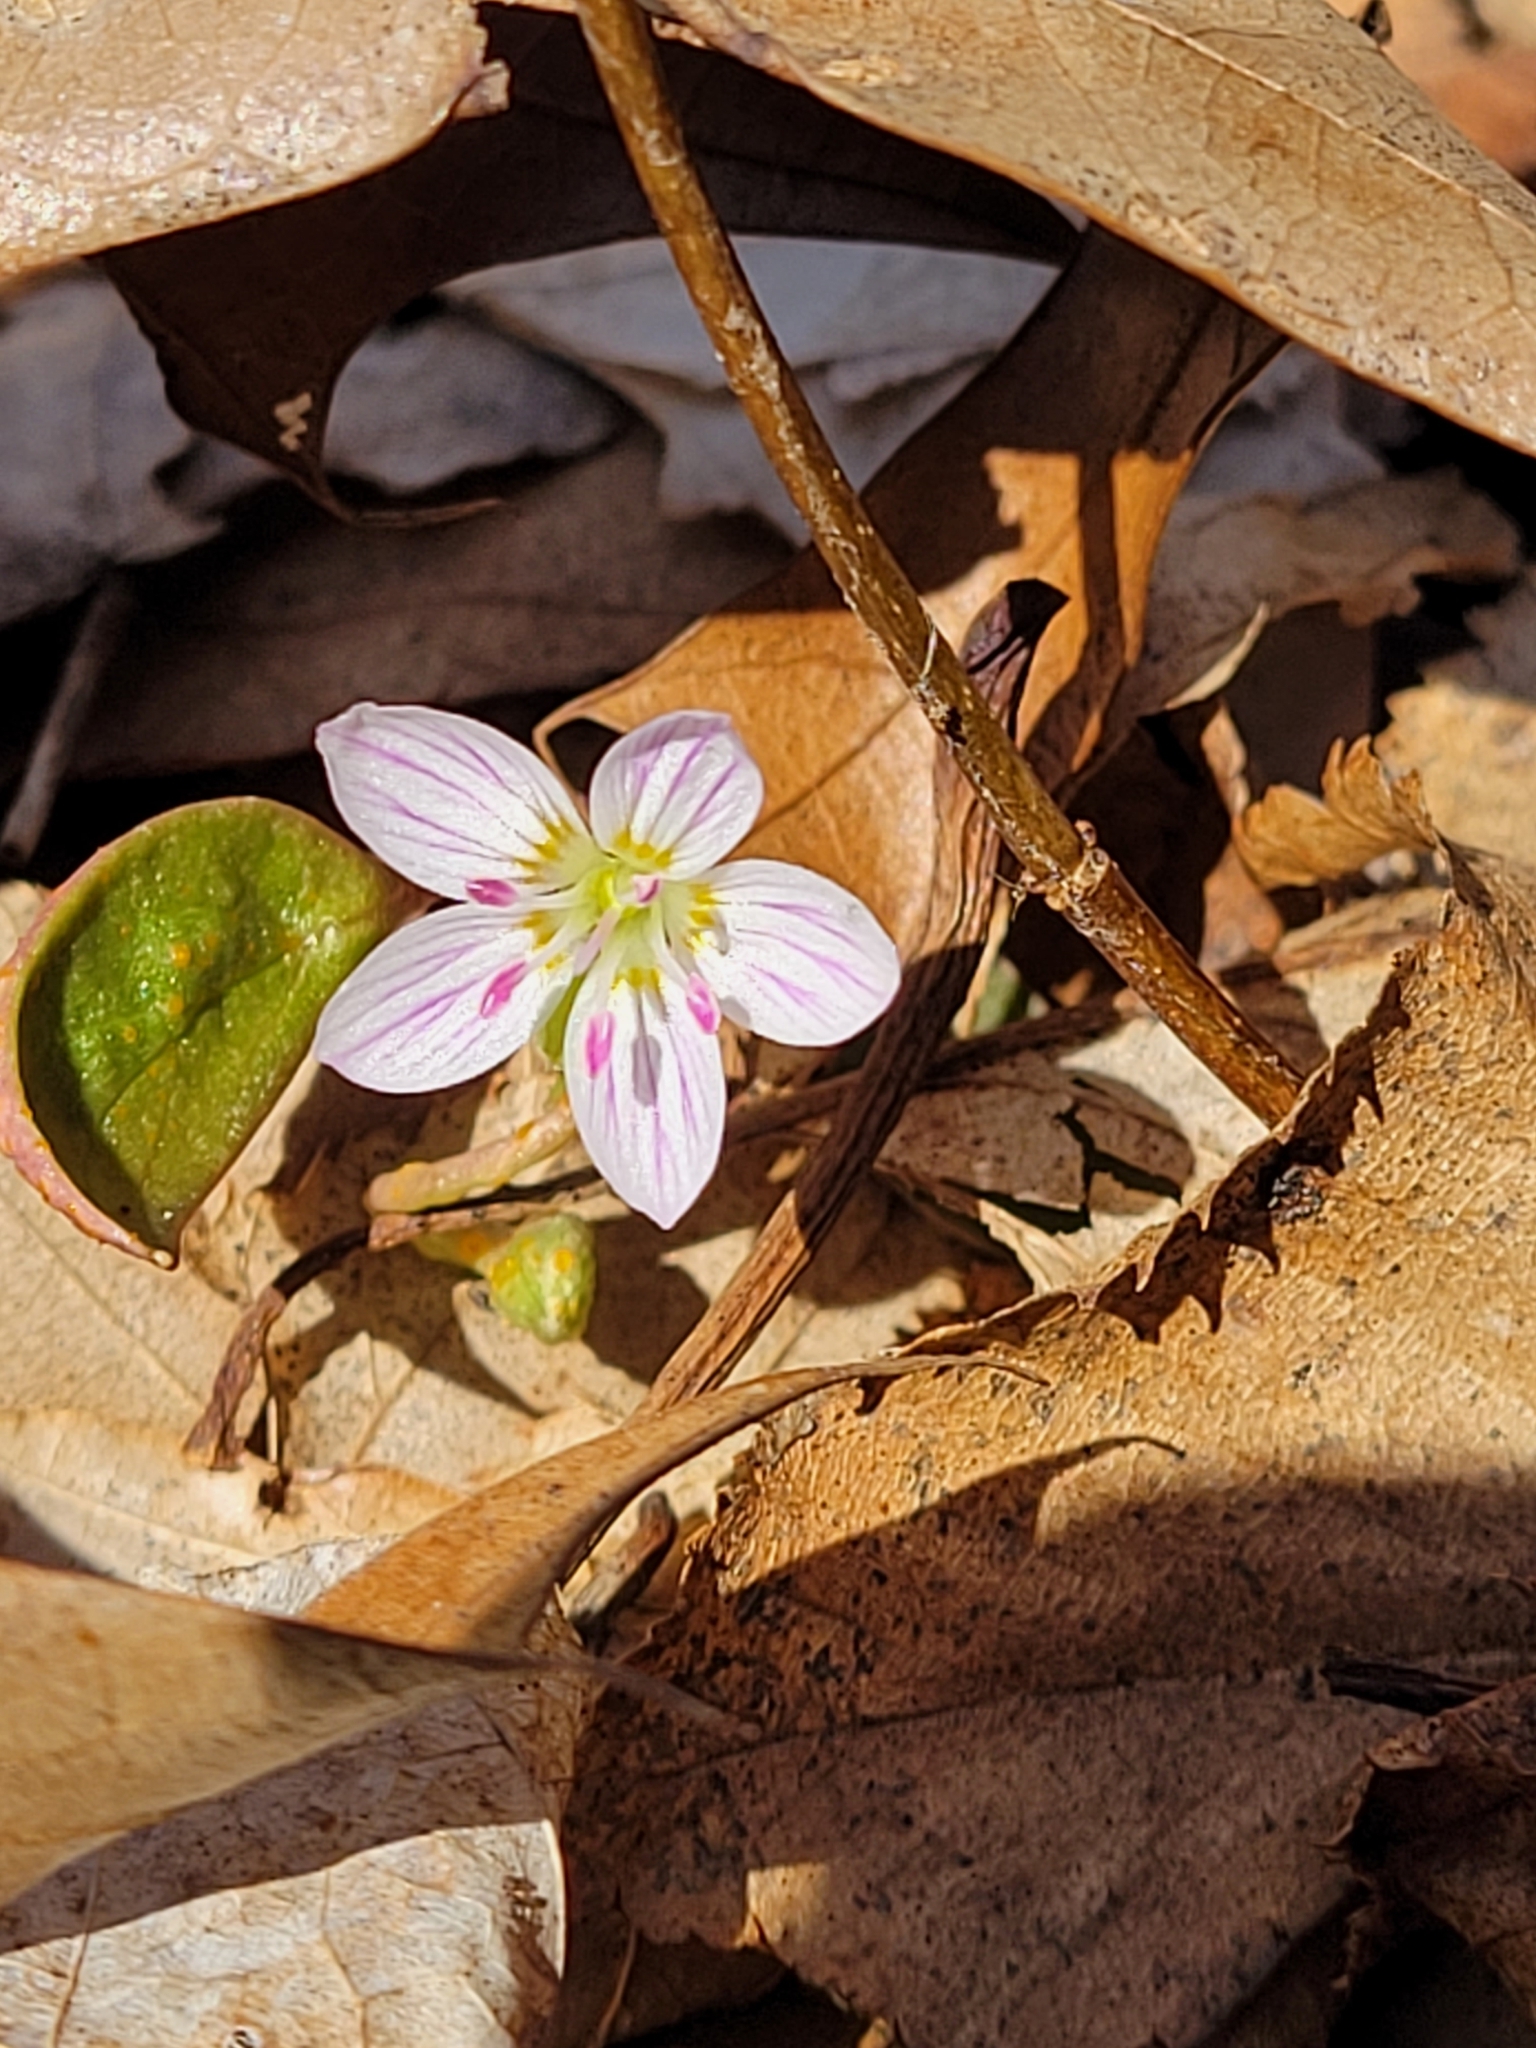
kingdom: Plantae
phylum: Tracheophyta
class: Magnoliopsida
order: Caryophyllales
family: Montiaceae
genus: Claytonia
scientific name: Claytonia caroliniana
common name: Carolina spring beauty
